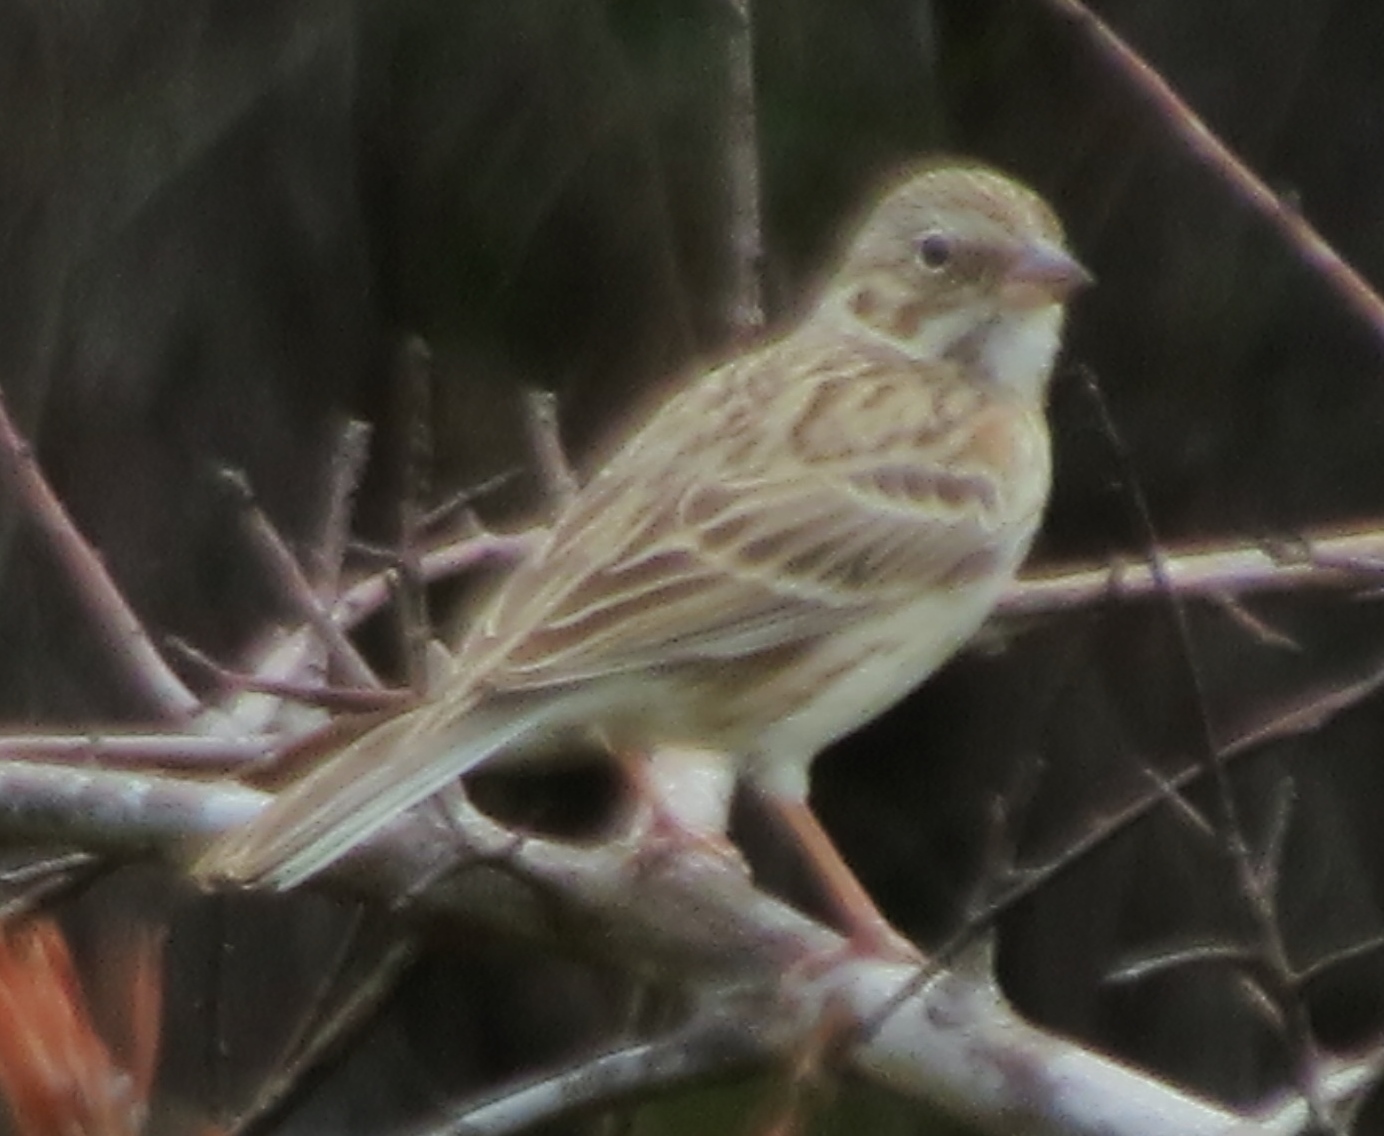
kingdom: Animalia
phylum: Chordata
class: Aves
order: Passeriformes
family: Passerellidae
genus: Pooecetes
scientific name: Pooecetes gramineus
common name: Vesper sparrow
